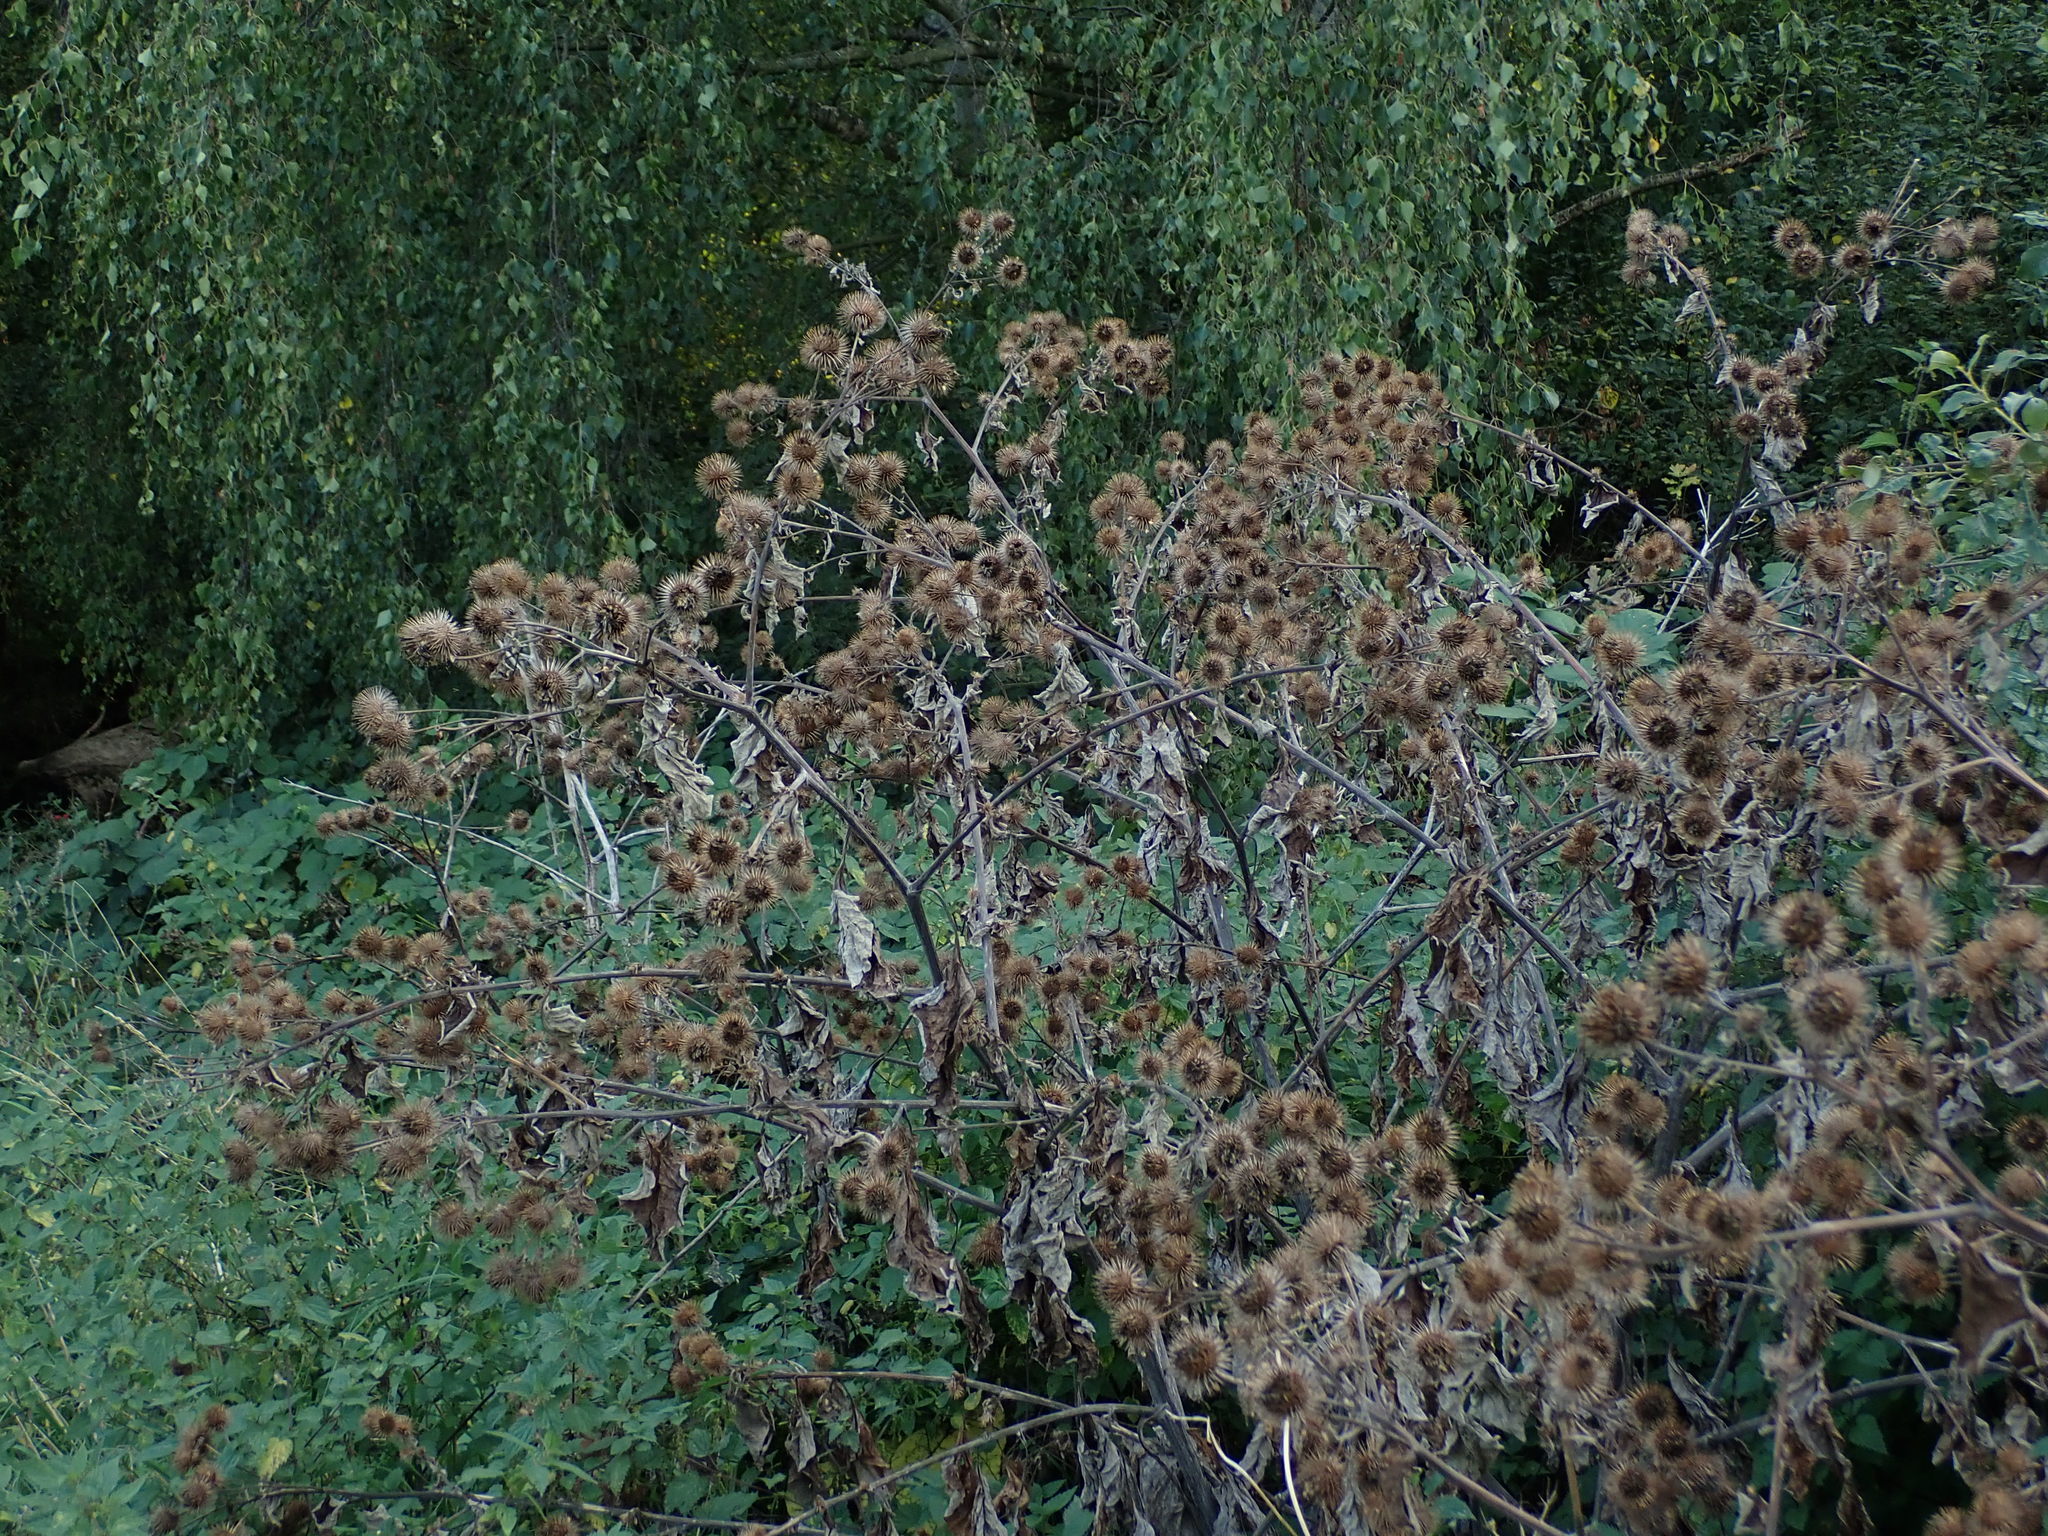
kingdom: Plantae
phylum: Tracheophyta
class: Magnoliopsida
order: Asterales
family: Asteraceae
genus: Arctium
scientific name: Arctium lappa
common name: Greater burdock
